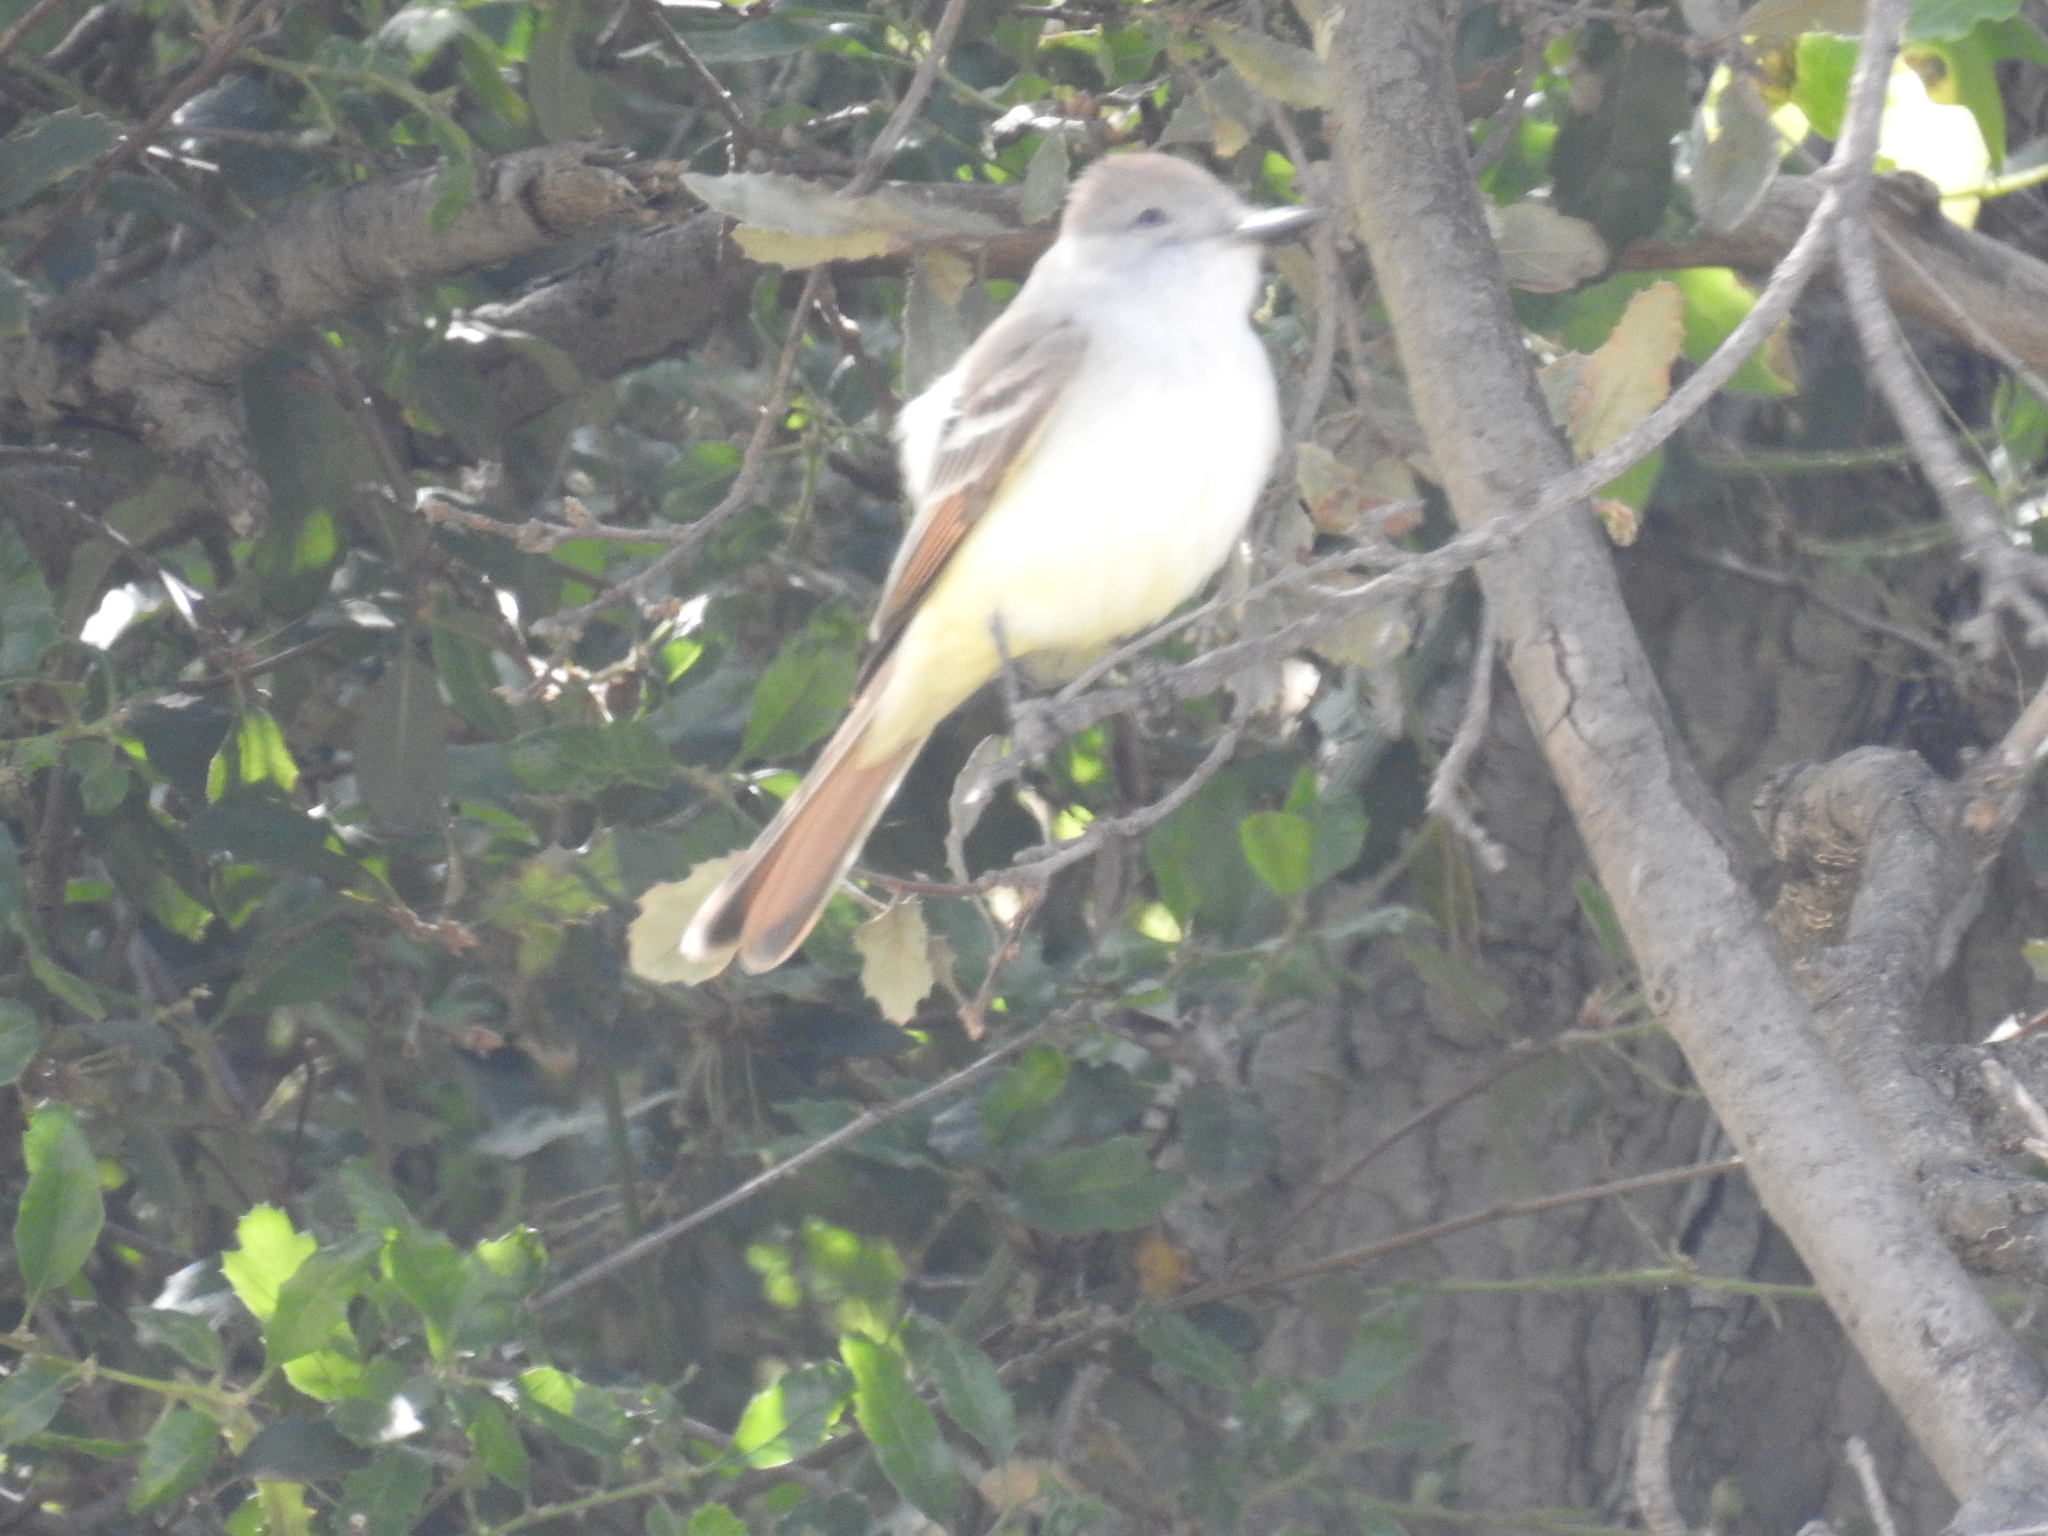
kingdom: Animalia
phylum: Chordata
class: Aves
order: Passeriformes
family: Tyrannidae
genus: Myiarchus
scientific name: Myiarchus cinerascens
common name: Ash-throated flycatcher
